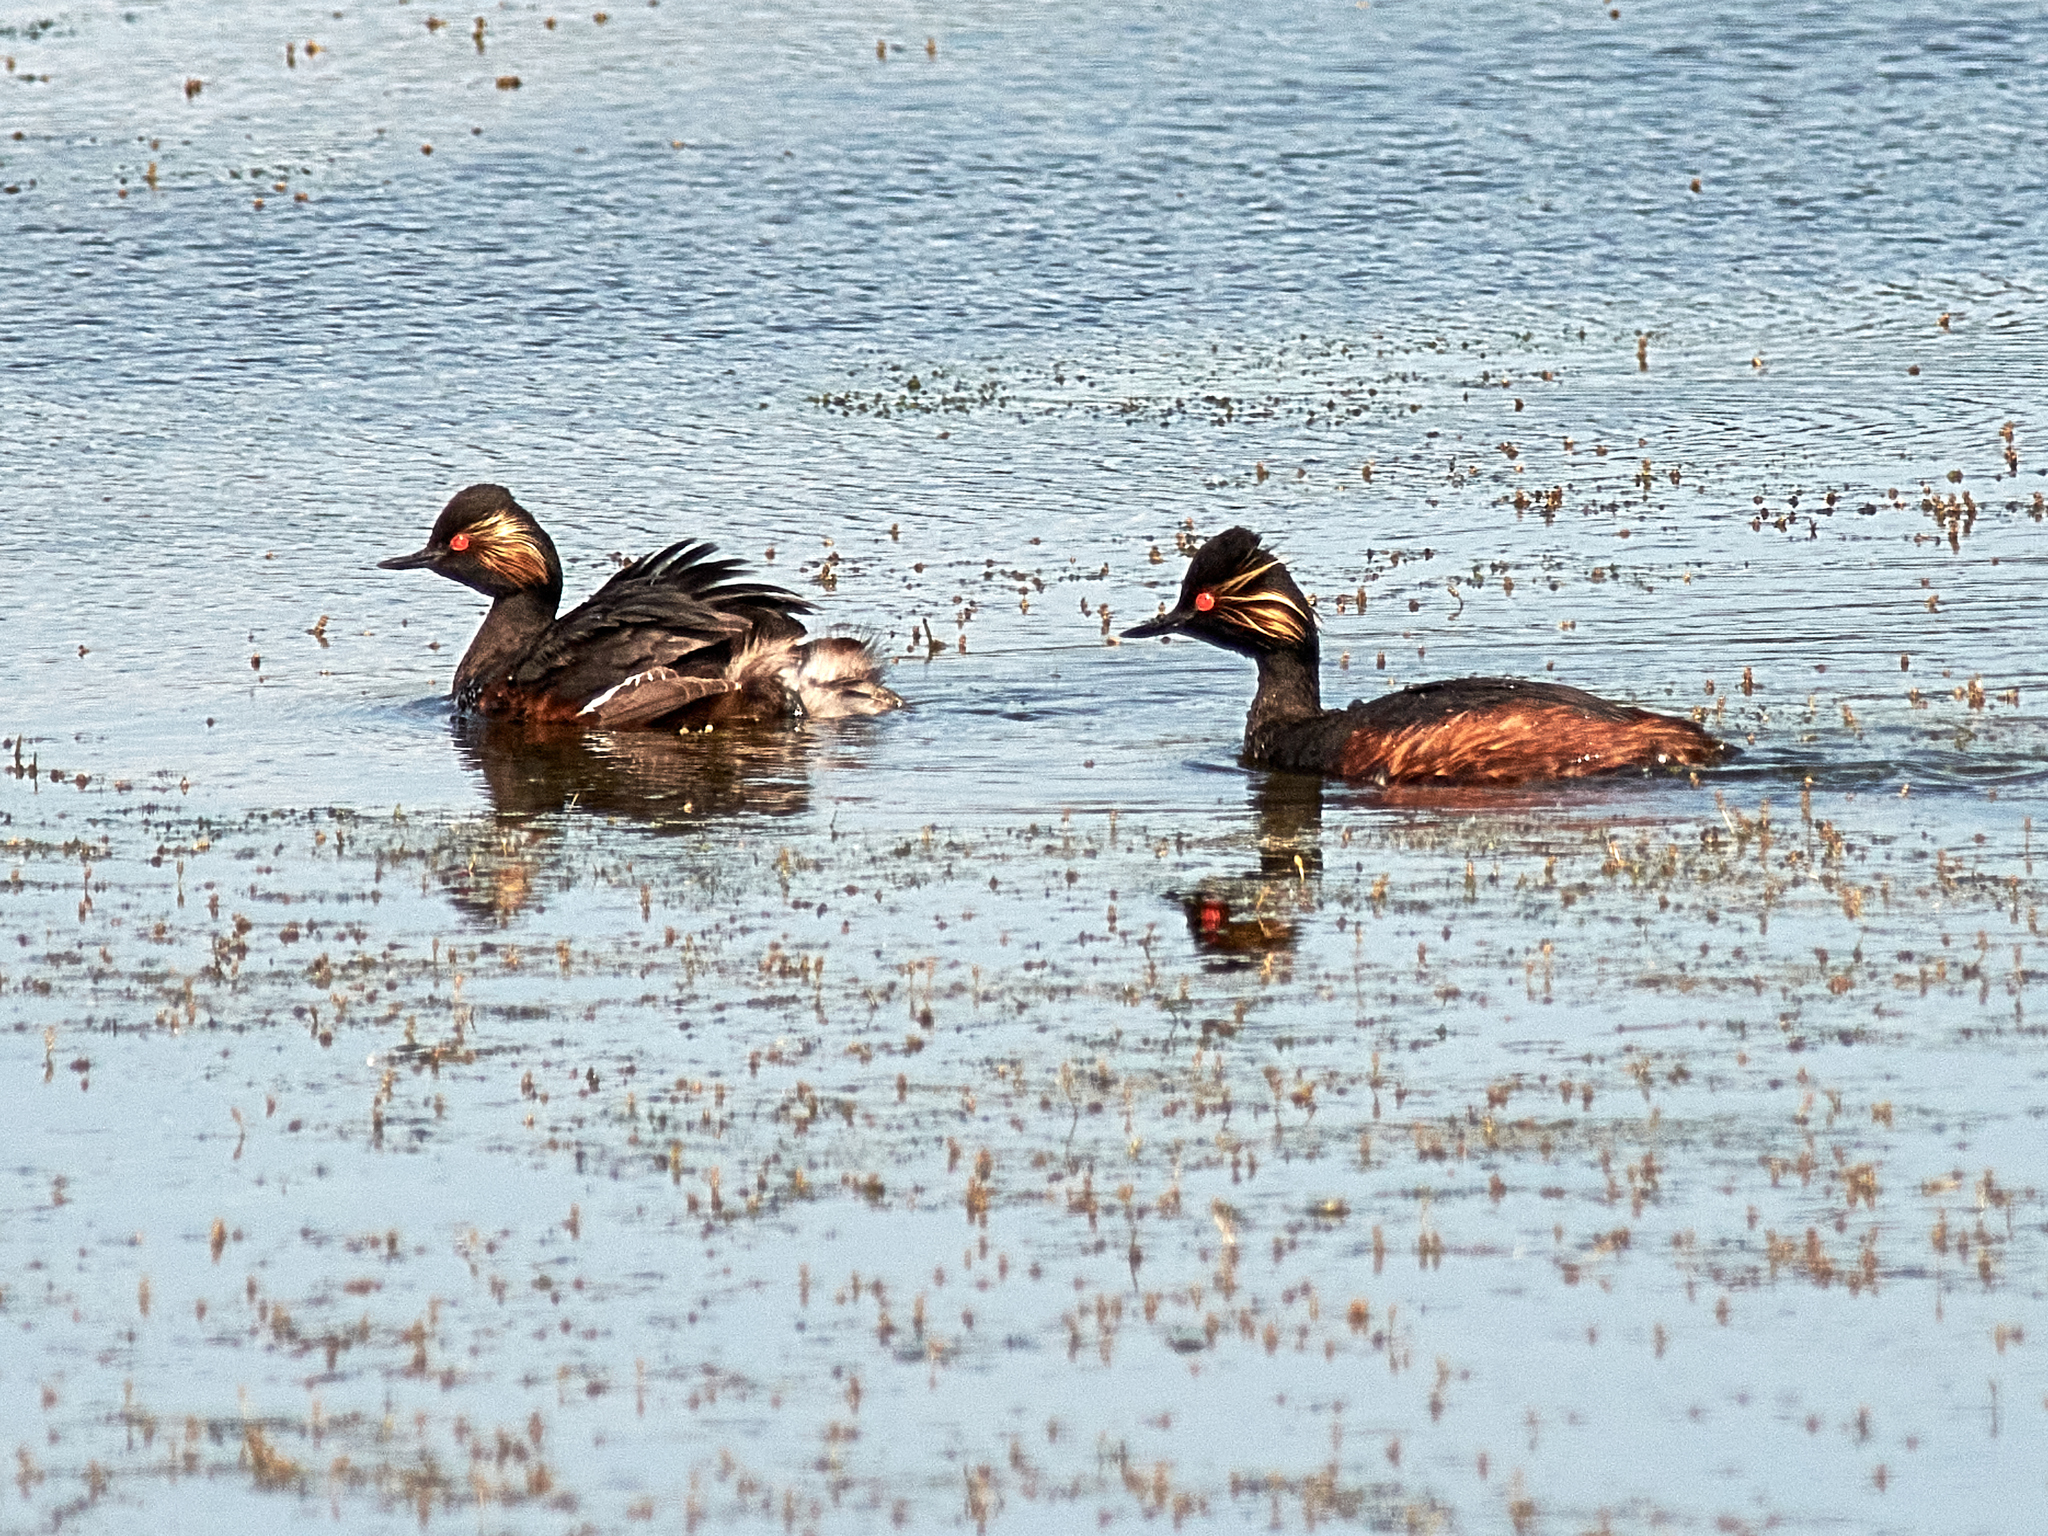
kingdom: Animalia
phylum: Chordata
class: Aves
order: Podicipediformes
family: Podicipedidae
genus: Podiceps
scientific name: Podiceps nigricollis
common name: Black-necked grebe
